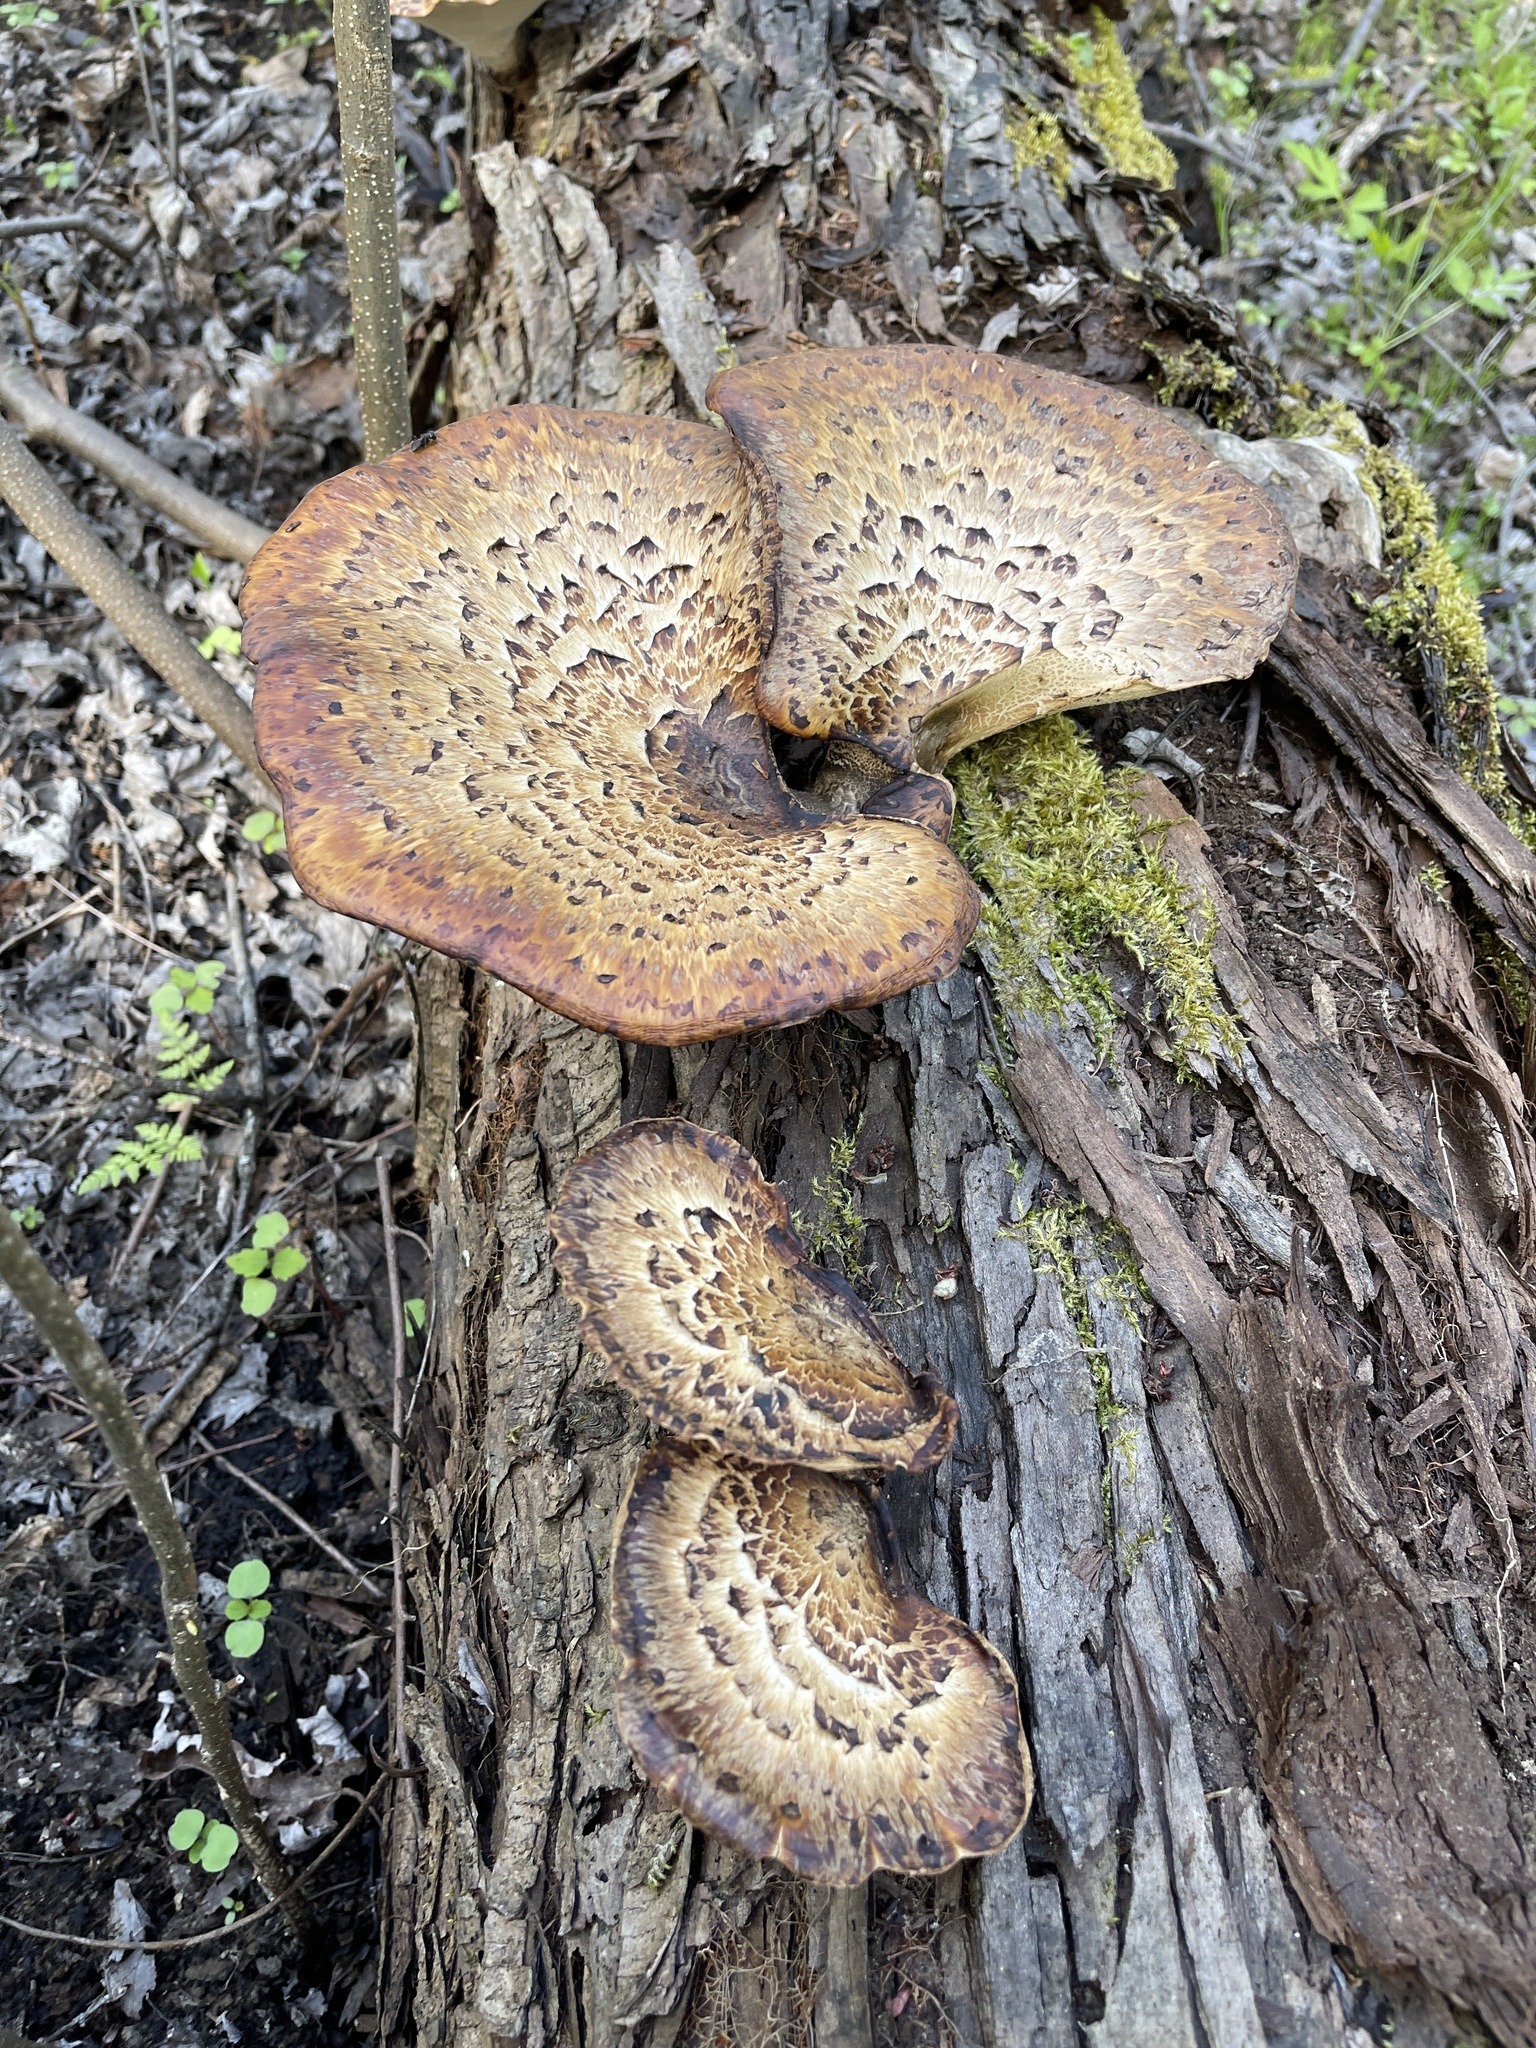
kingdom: Fungi
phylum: Basidiomycota
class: Agaricomycetes
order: Polyporales
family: Polyporaceae
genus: Cerioporus
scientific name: Cerioporus squamosus
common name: Dryad's saddle
